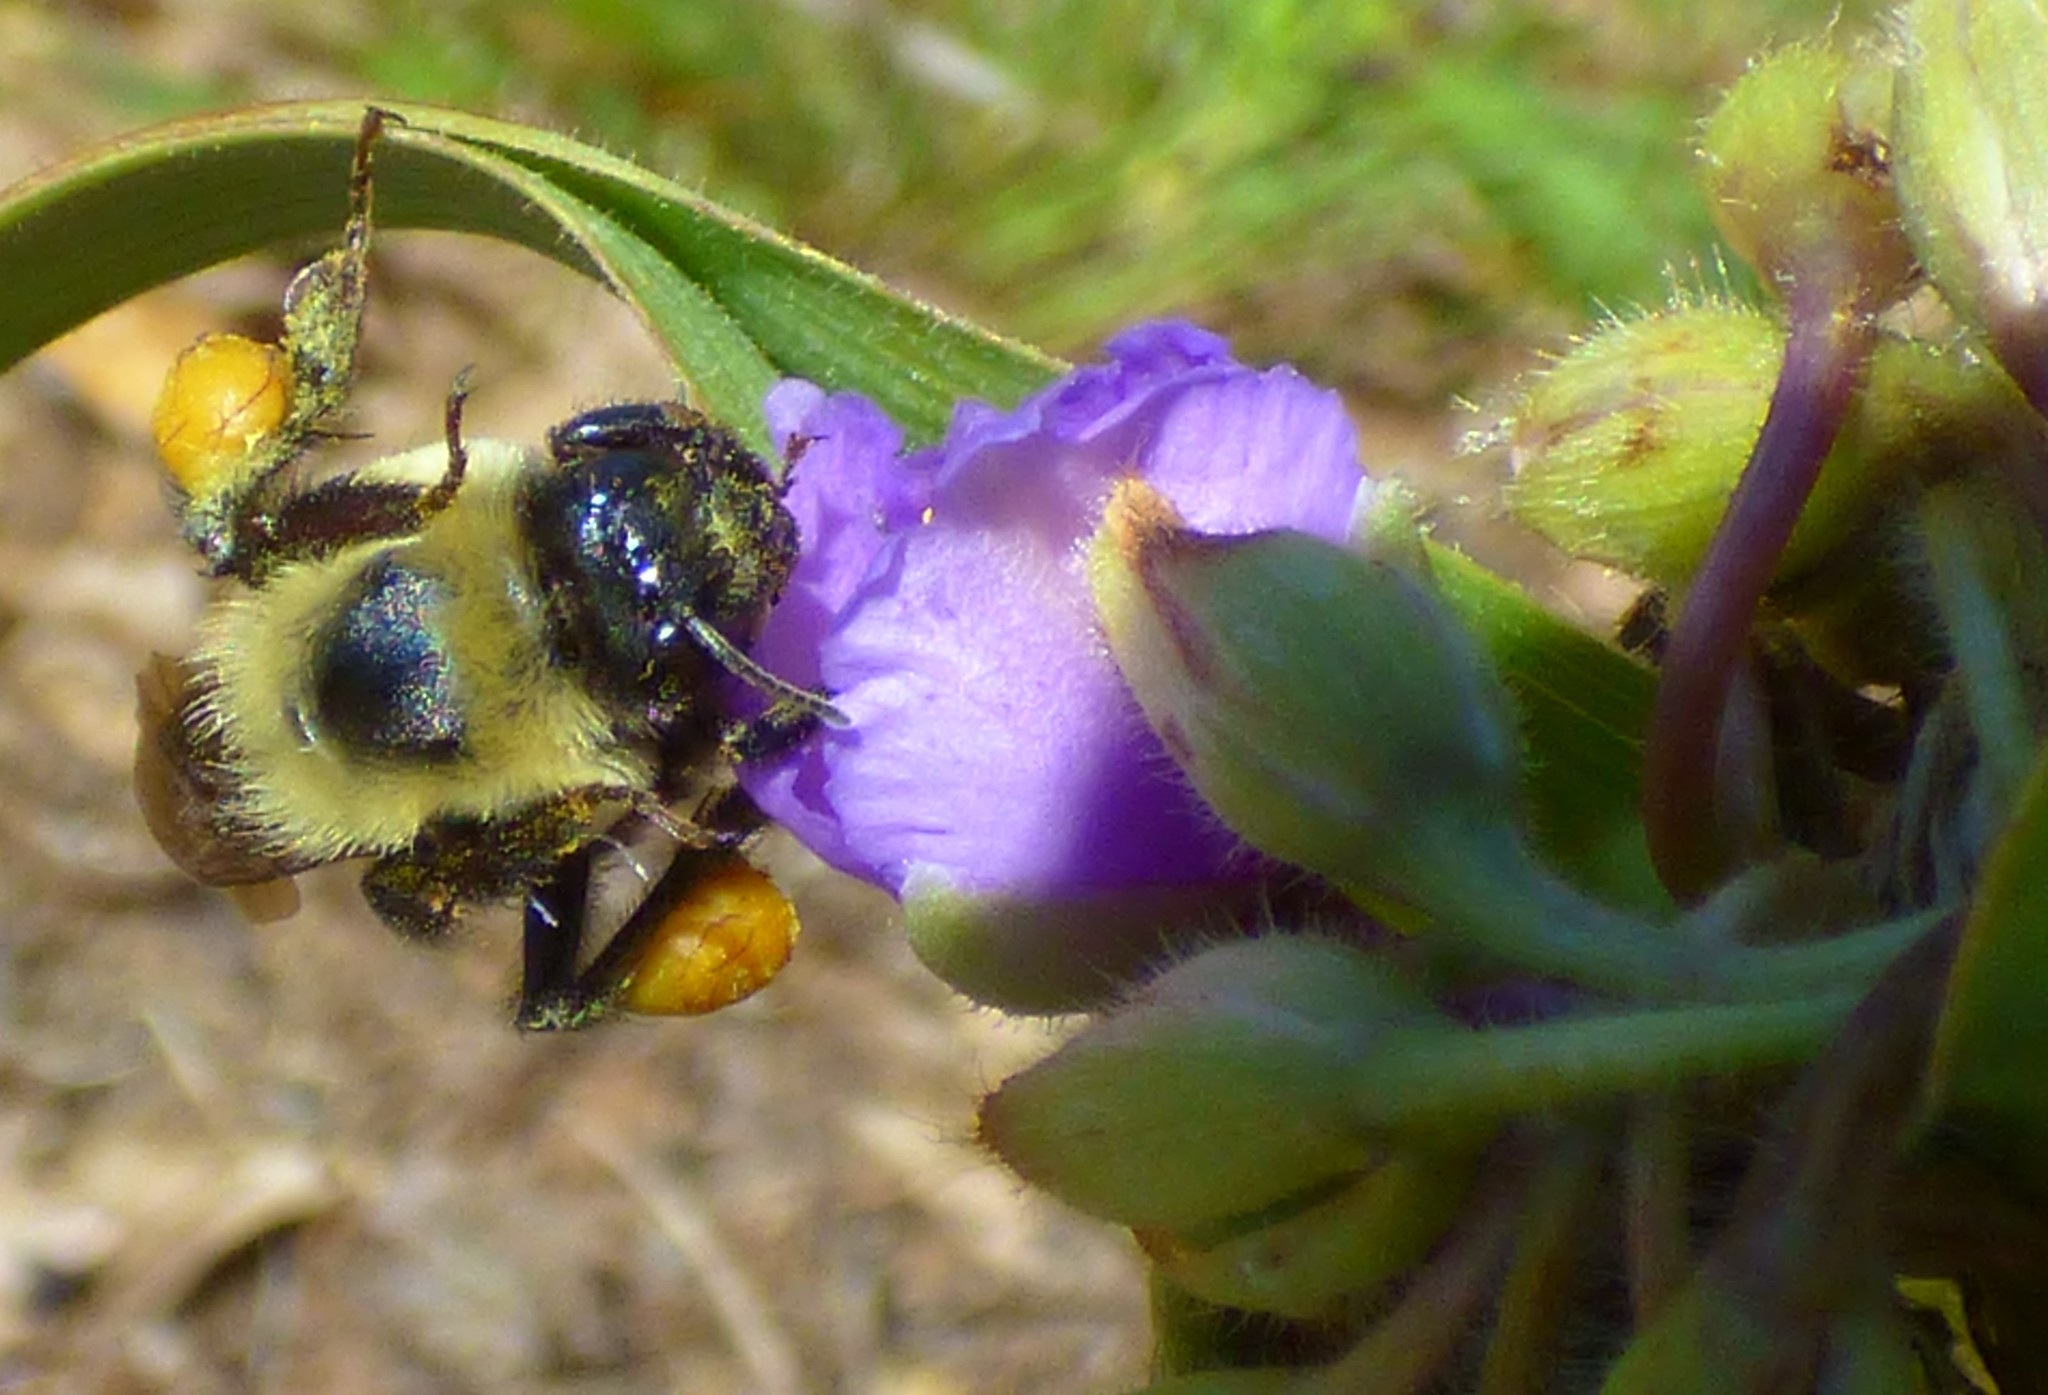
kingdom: Animalia
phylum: Arthropoda
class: Insecta
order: Hymenoptera
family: Apidae
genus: Bombus
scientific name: Bombus griseocollis
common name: Brown-belted bumble bee
